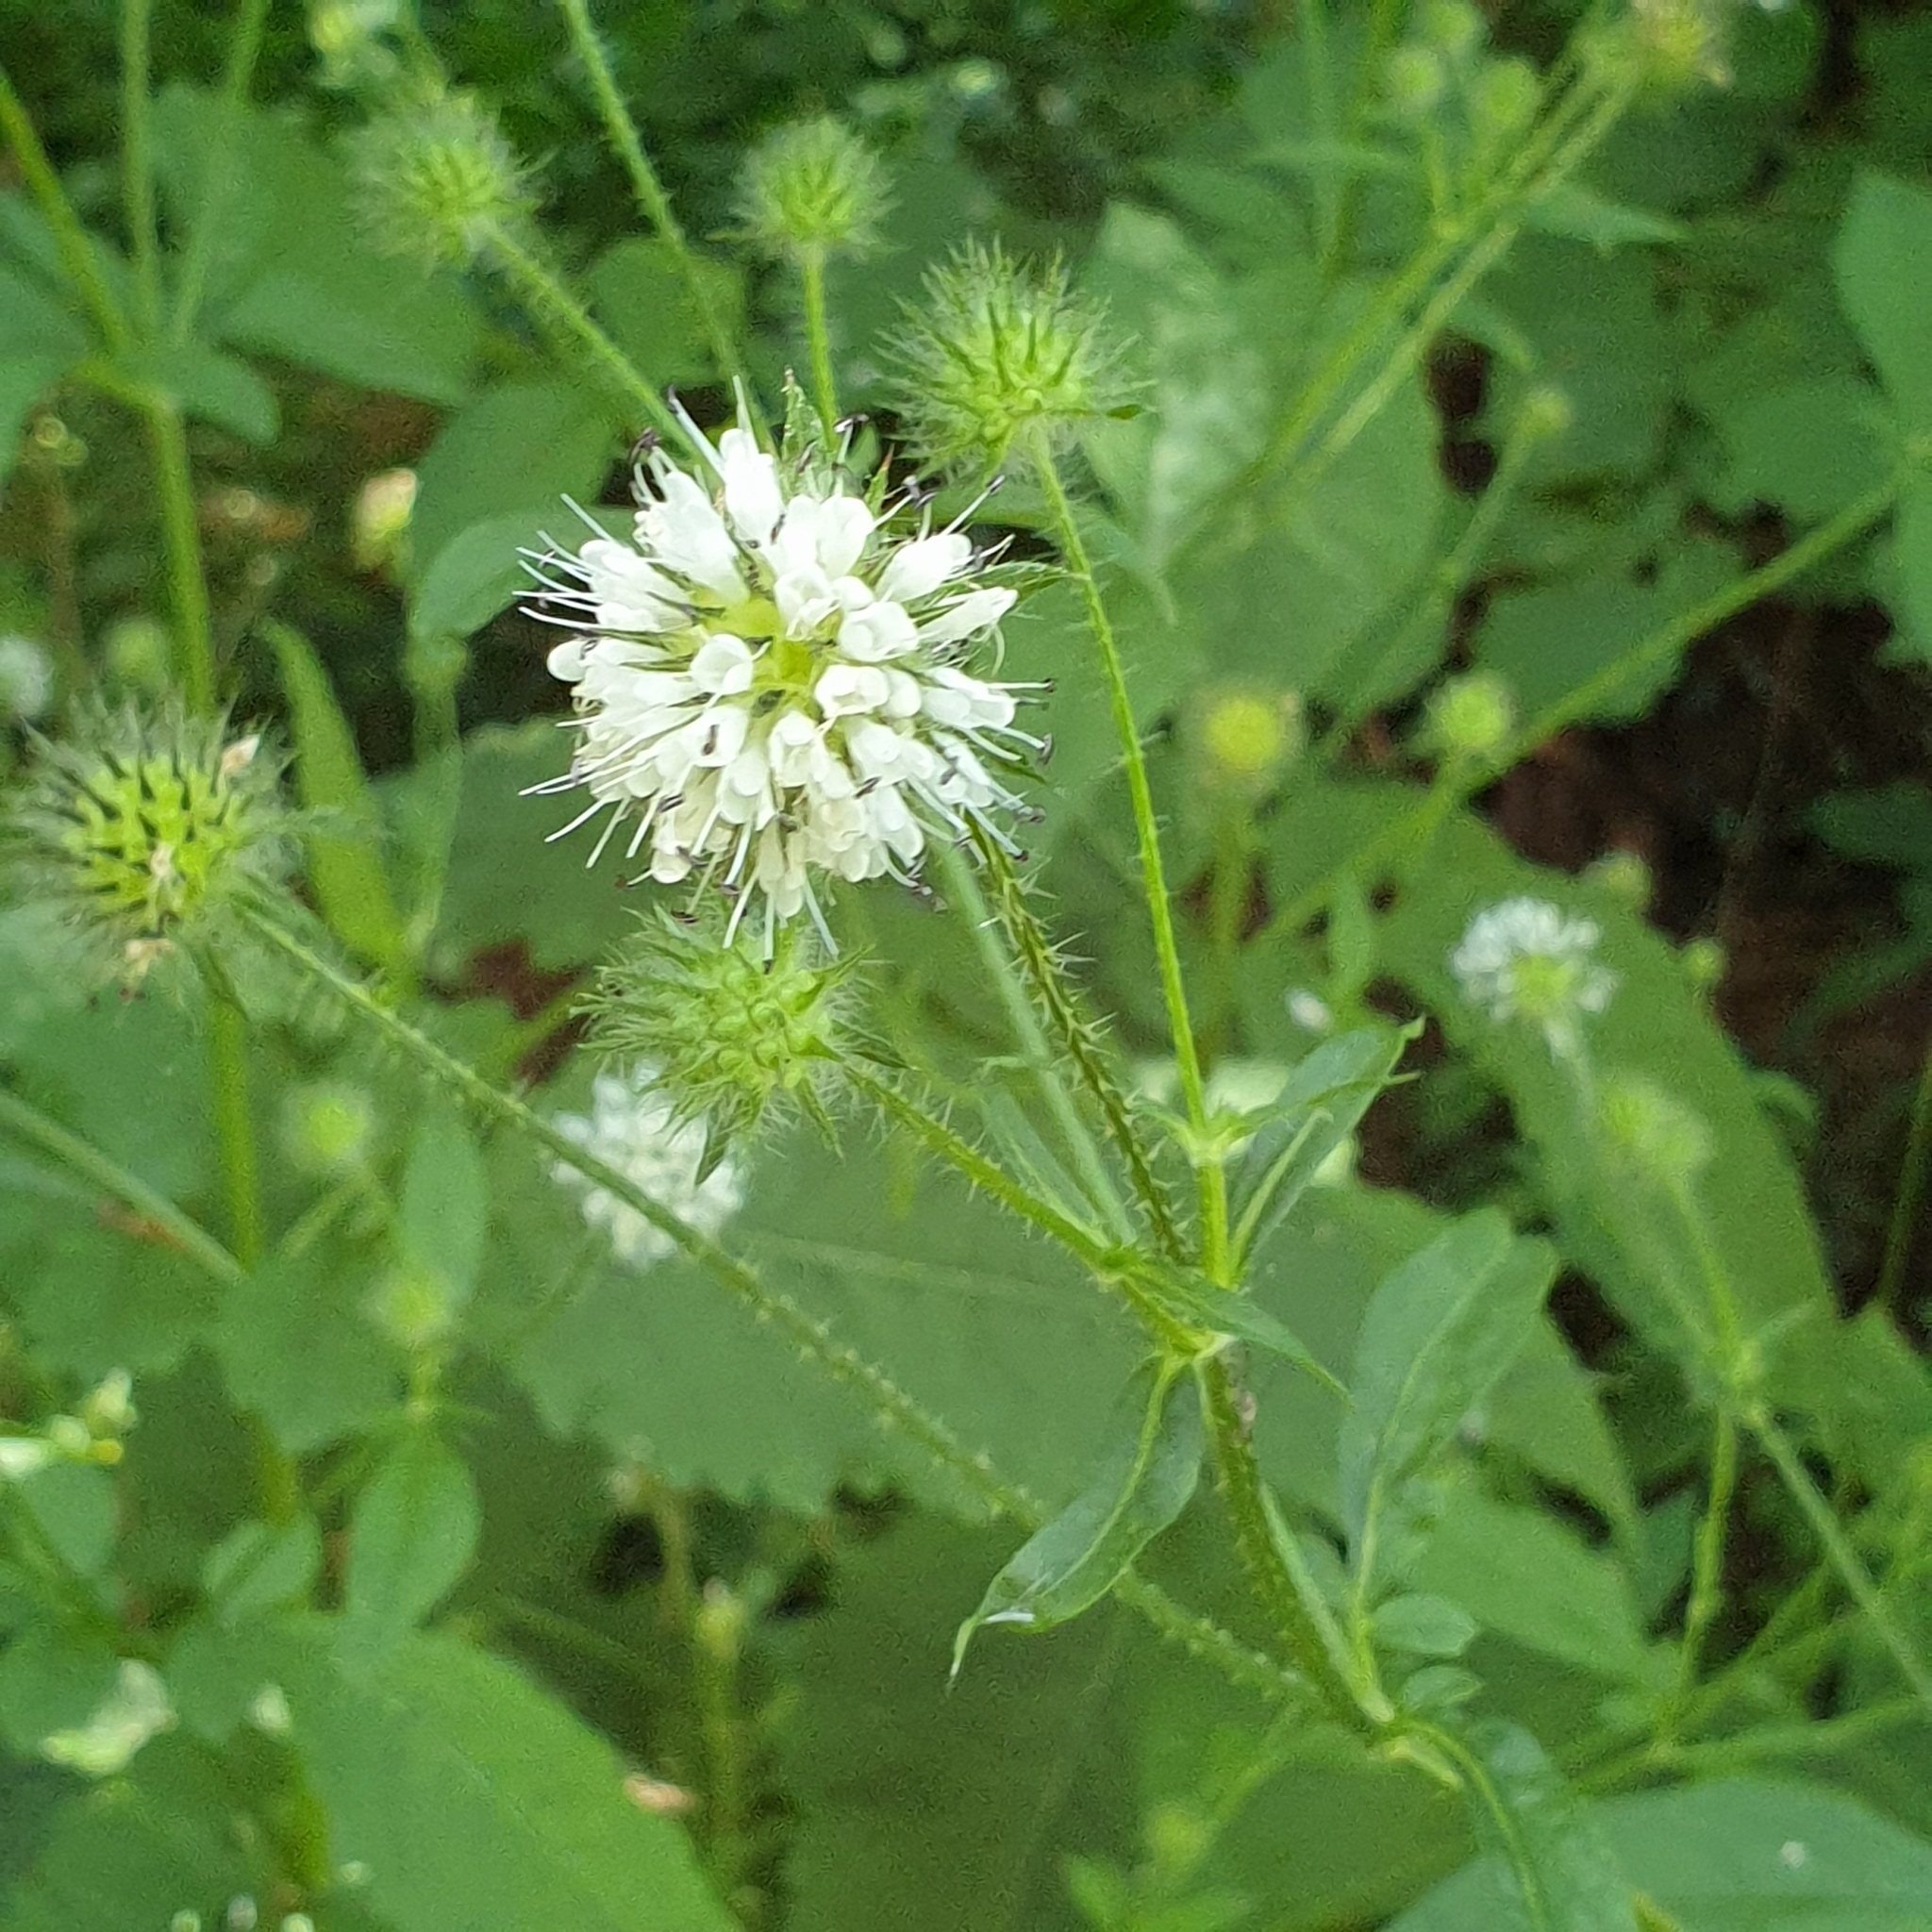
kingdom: Plantae
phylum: Tracheophyta
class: Magnoliopsida
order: Dipsacales
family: Caprifoliaceae
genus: Dipsacus
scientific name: Dipsacus pilosus
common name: Small teasel
